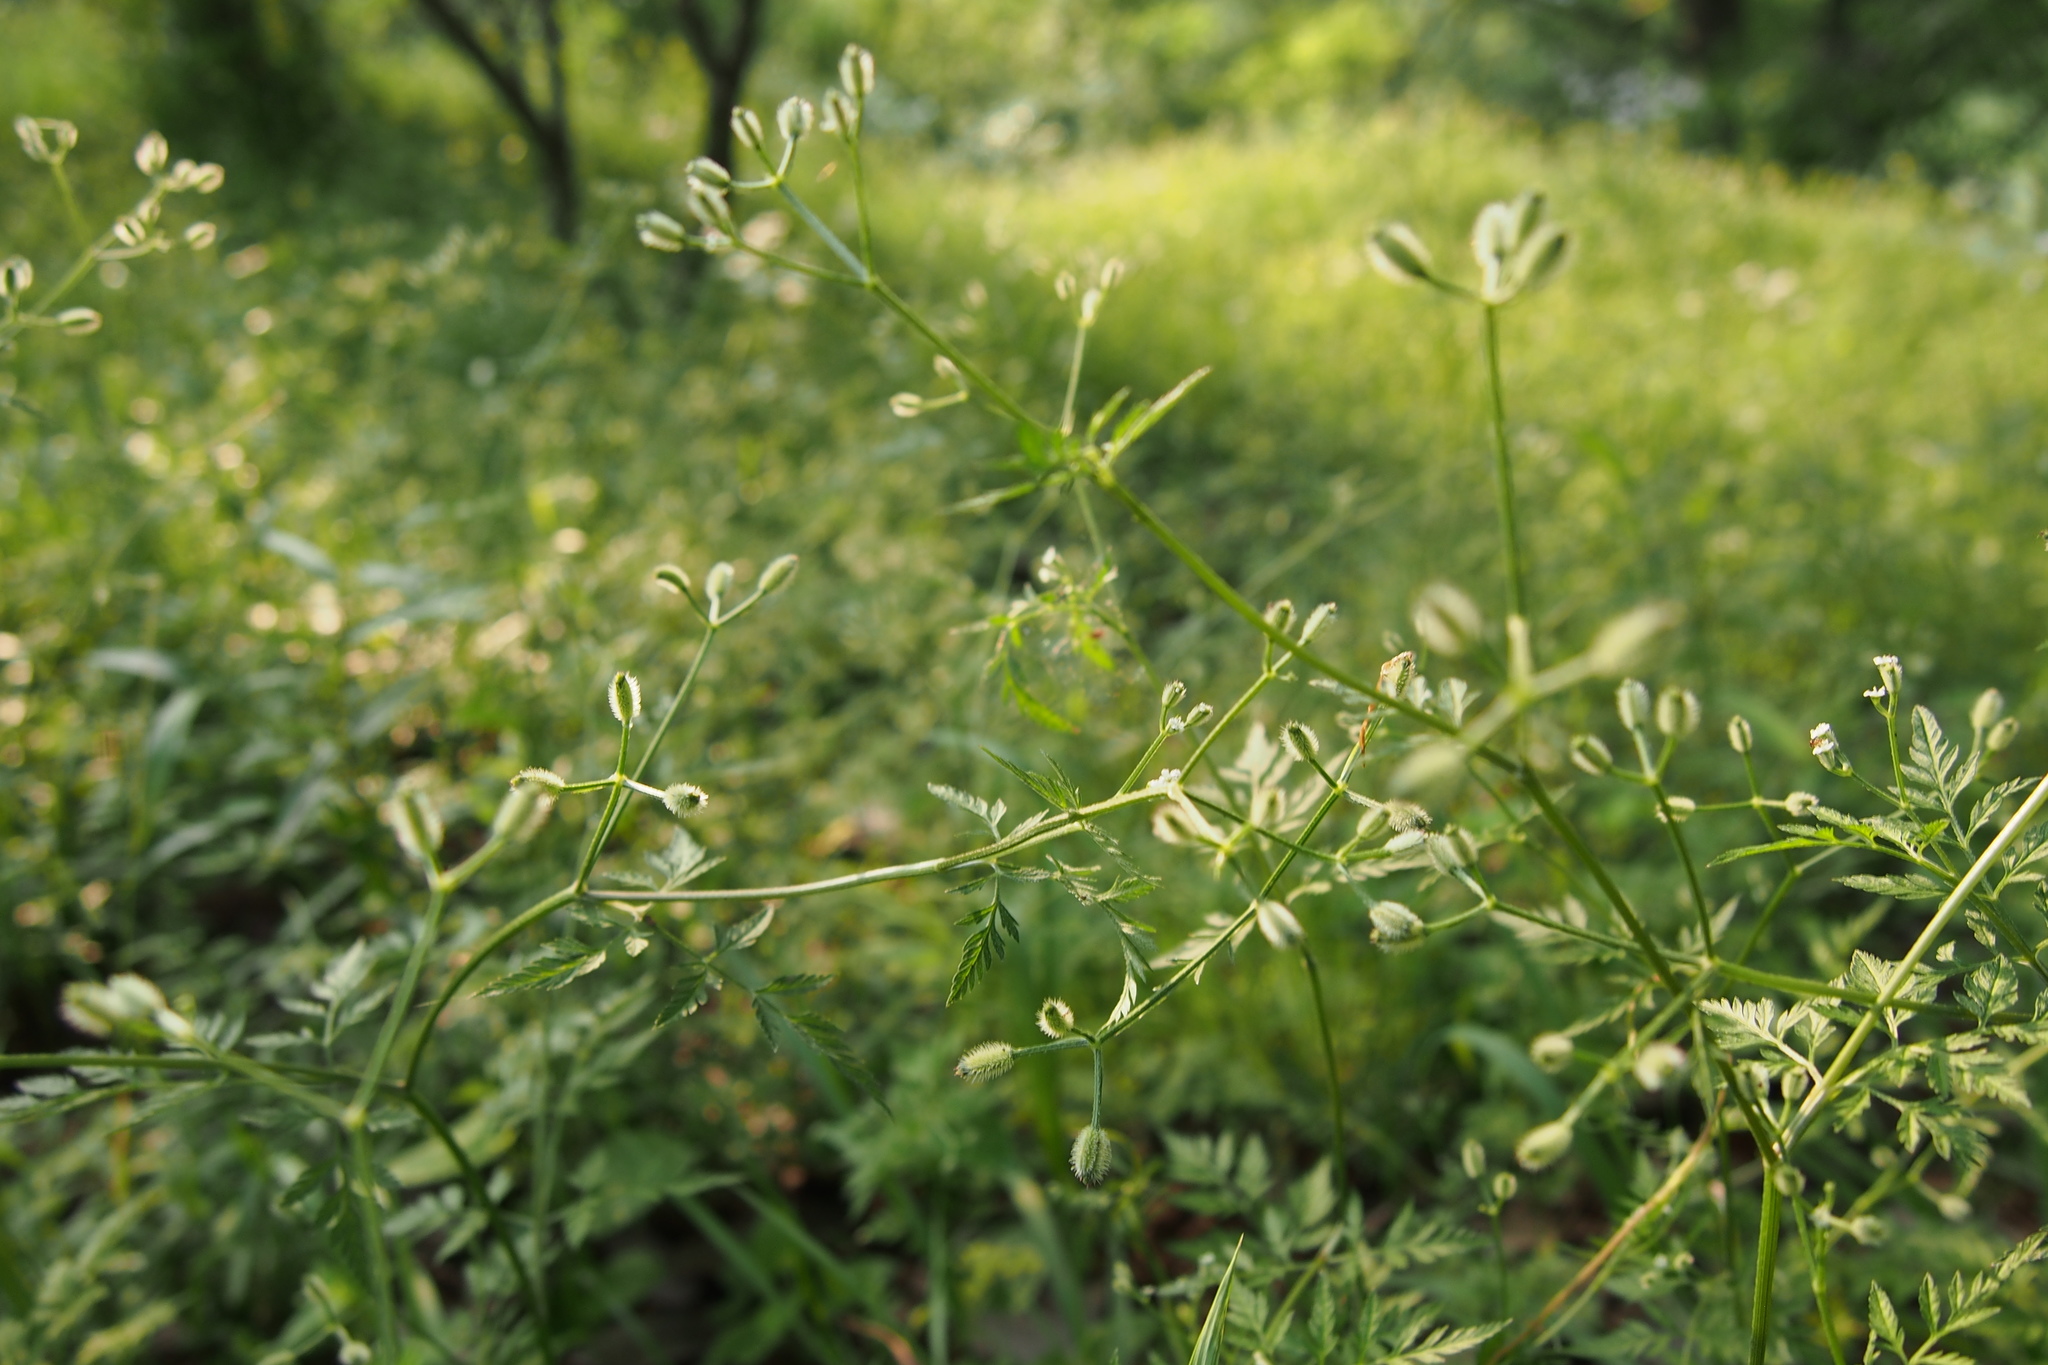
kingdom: Plantae
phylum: Tracheophyta
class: Magnoliopsida
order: Apiales
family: Apiaceae
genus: Torilis
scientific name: Torilis scabra
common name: Rough hedgeparsley
